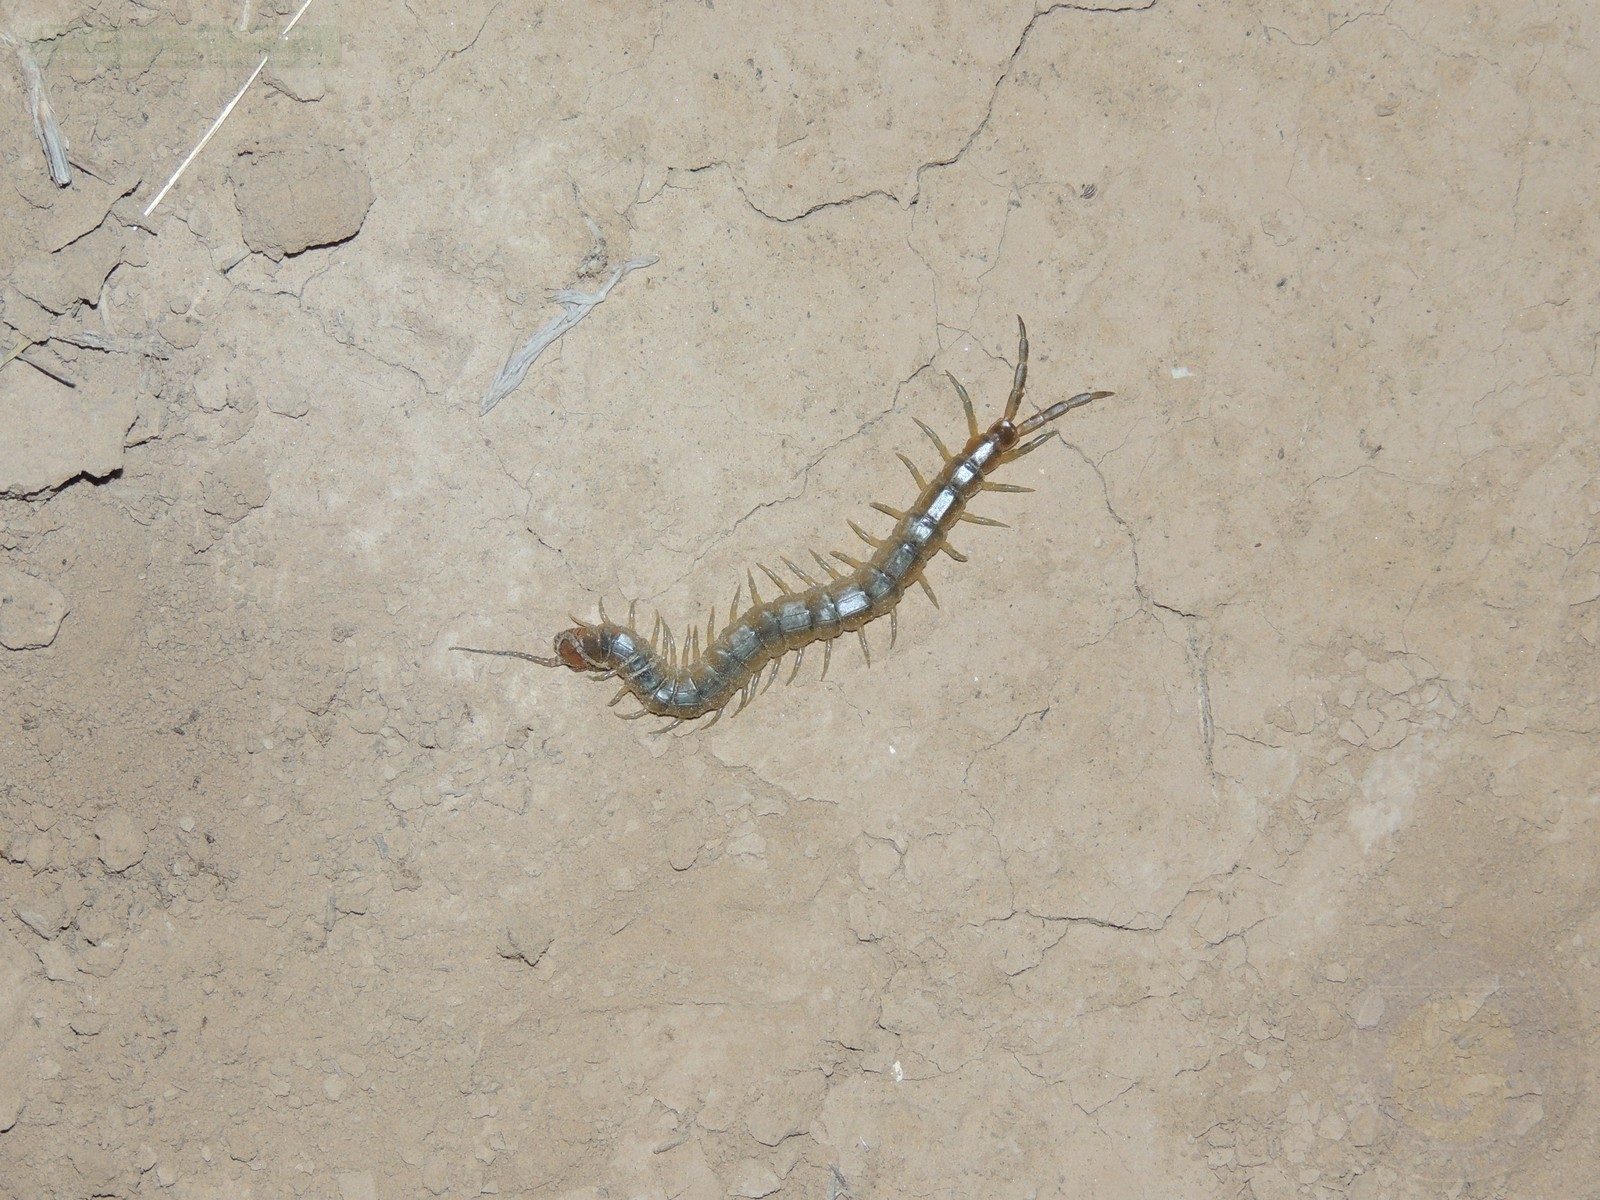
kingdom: Animalia
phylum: Arthropoda
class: Chilopoda
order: Scolopendromorpha
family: Scolopendridae
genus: Scolopendra
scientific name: Scolopendra canidens
